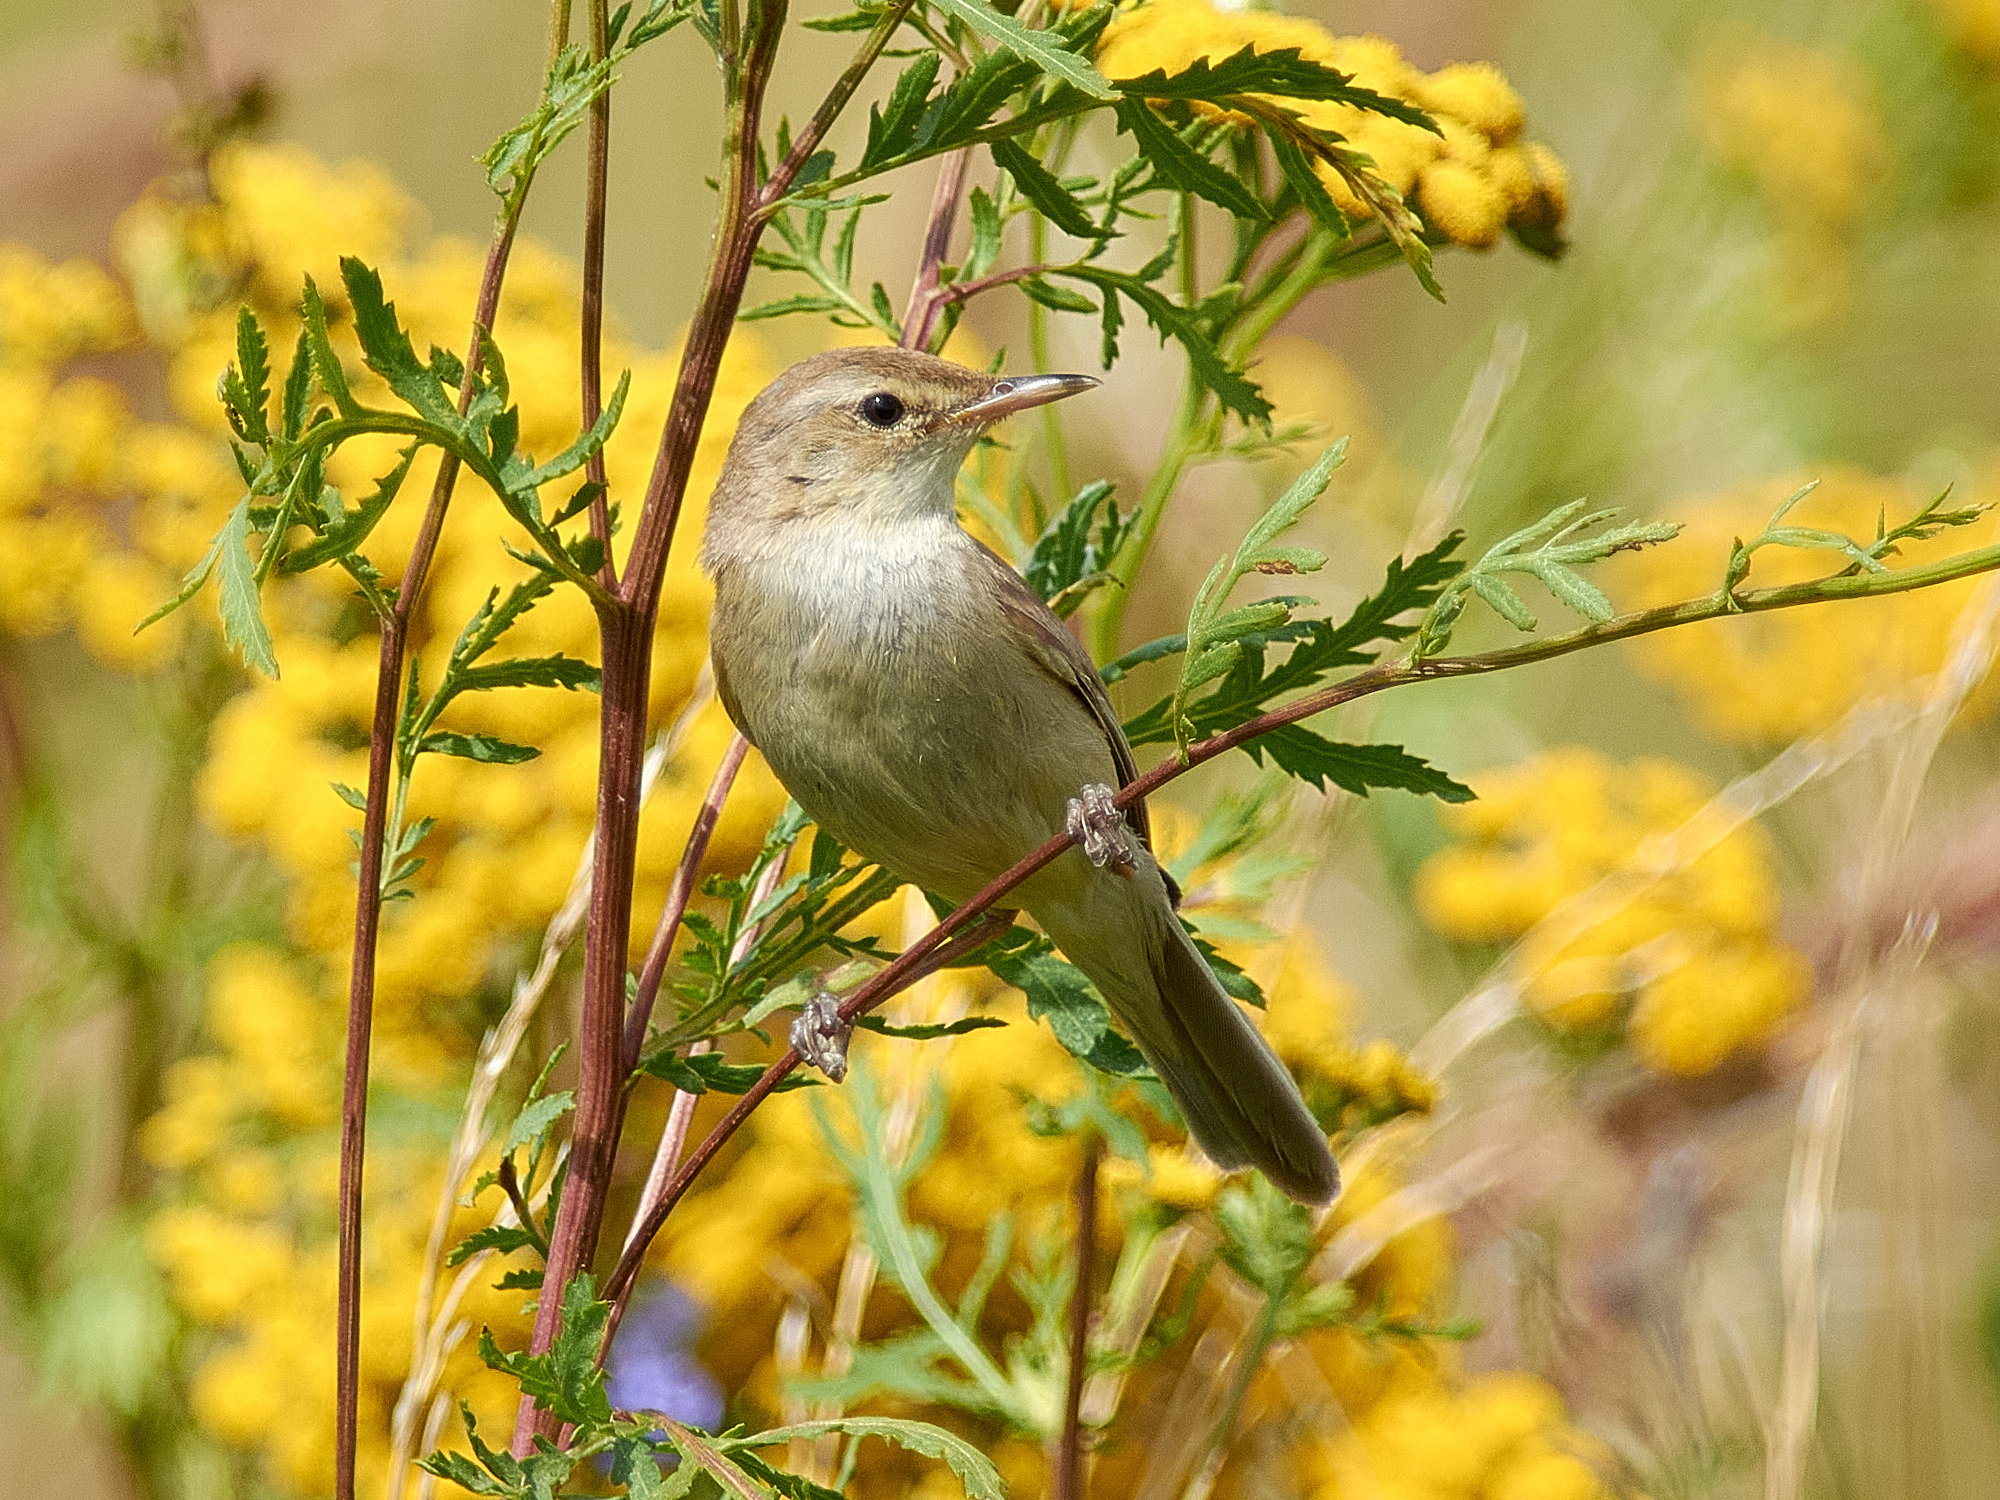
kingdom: Animalia
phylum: Chordata
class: Aves
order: Passeriformes
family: Acrocephalidae
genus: Iduna
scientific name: Iduna caligata
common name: Booted warbler
